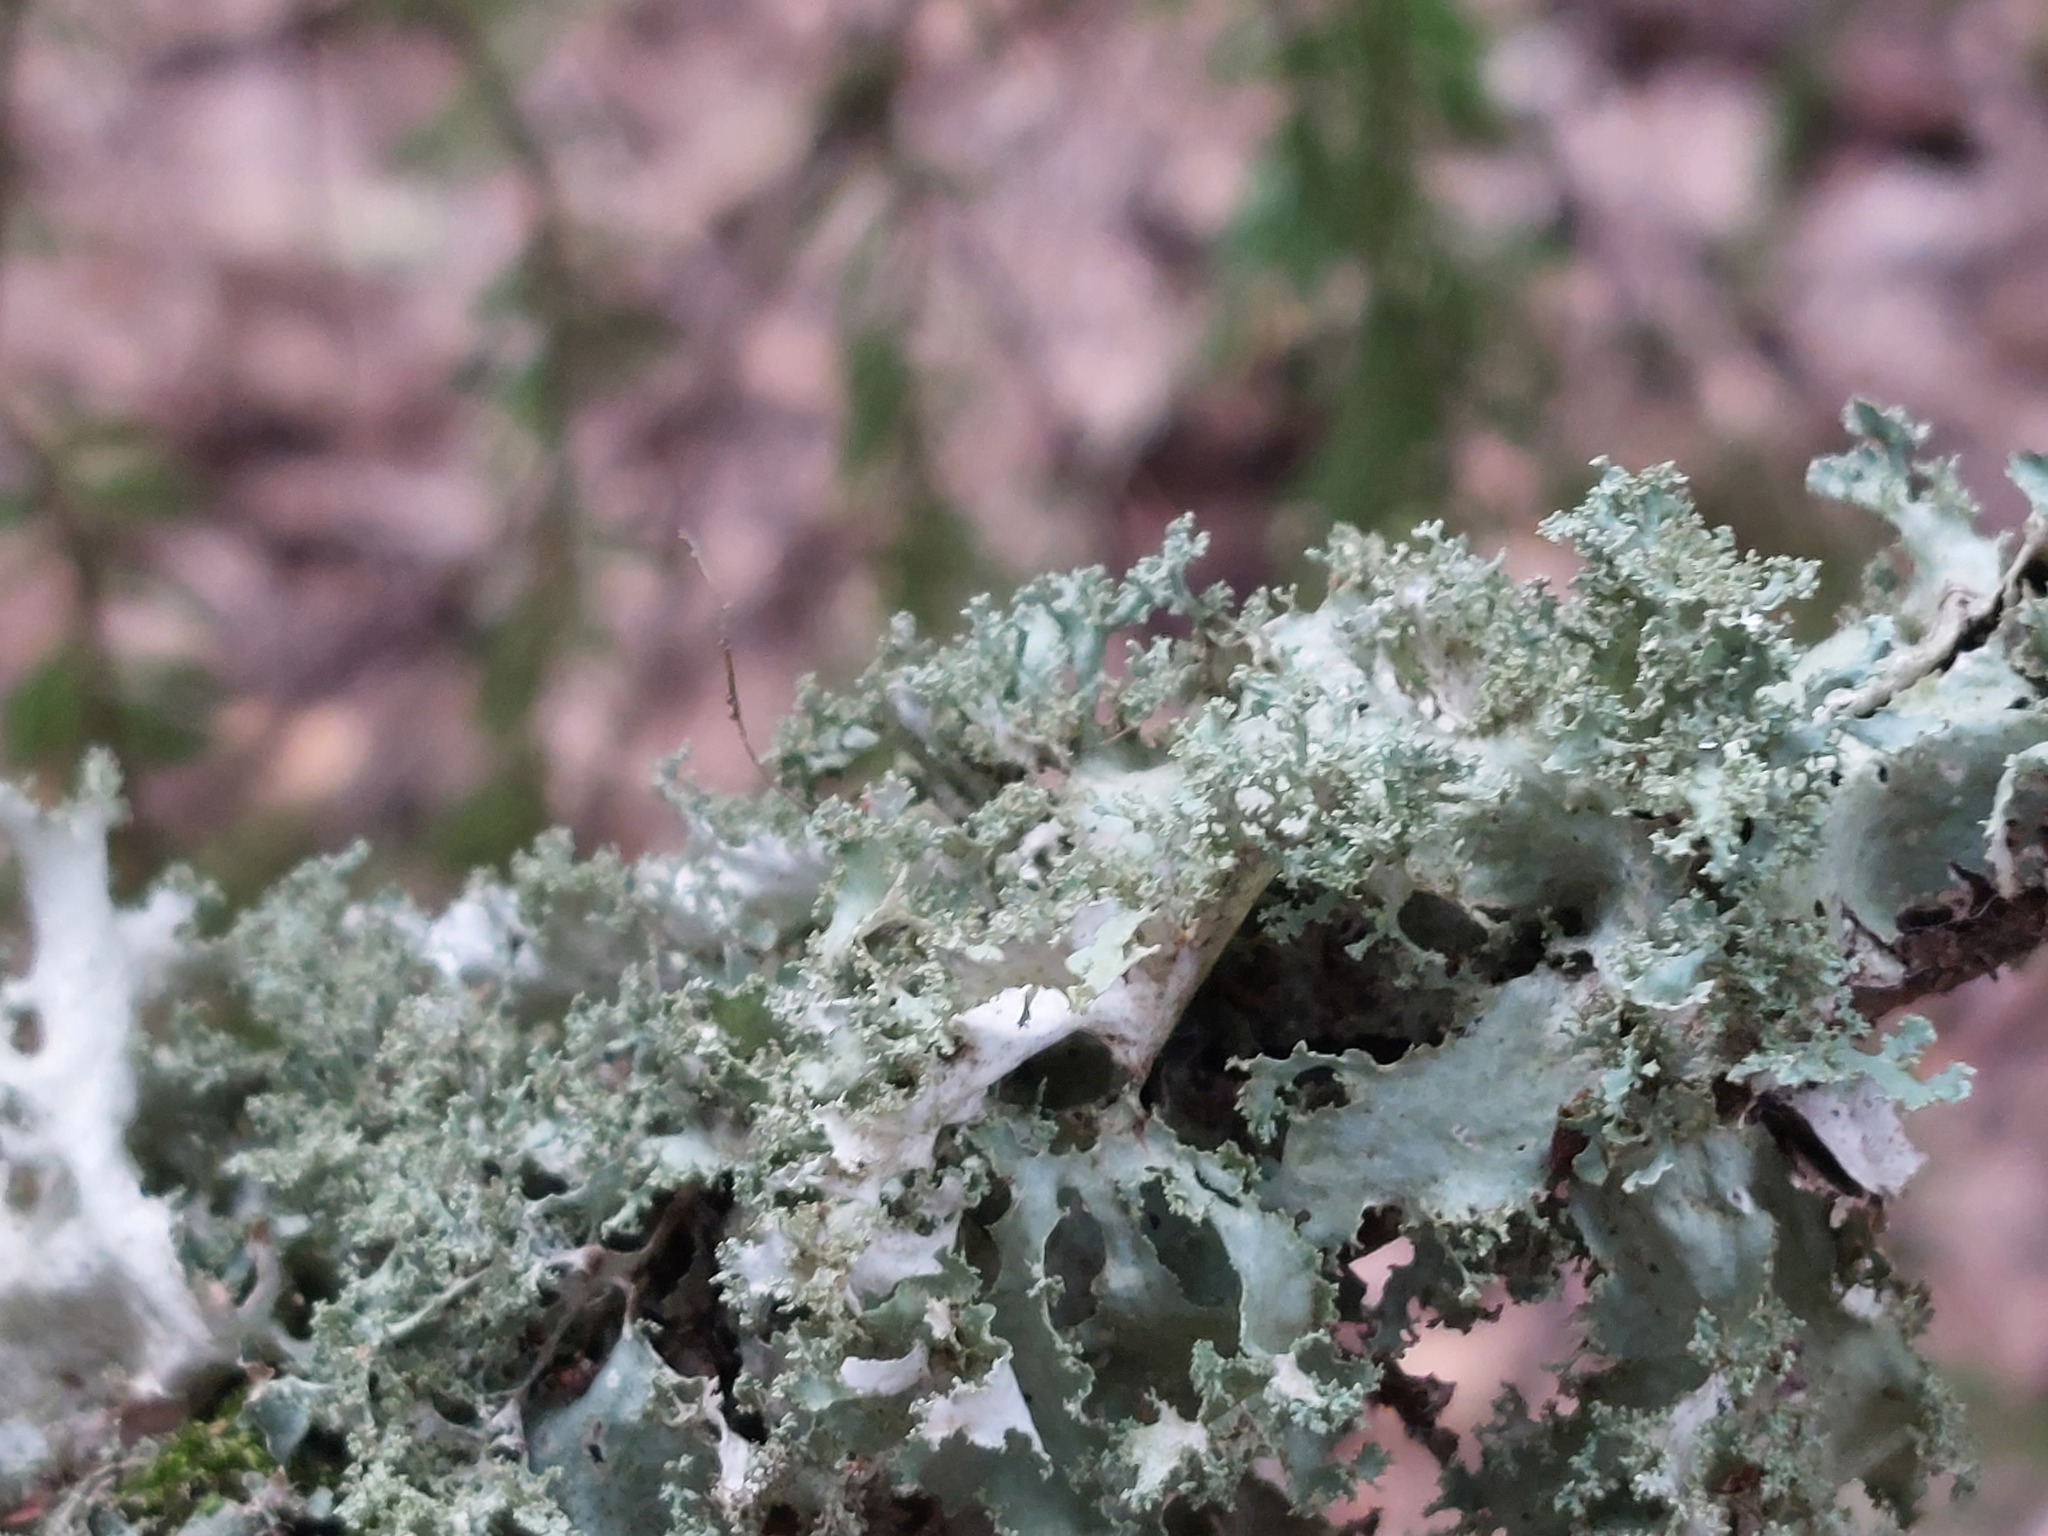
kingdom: Fungi
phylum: Ascomycota
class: Lecanoromycetes
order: Lecanorales
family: Parmeliaceae
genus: Platismatia
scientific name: Platismatia glauca
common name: Varied rag lichen
